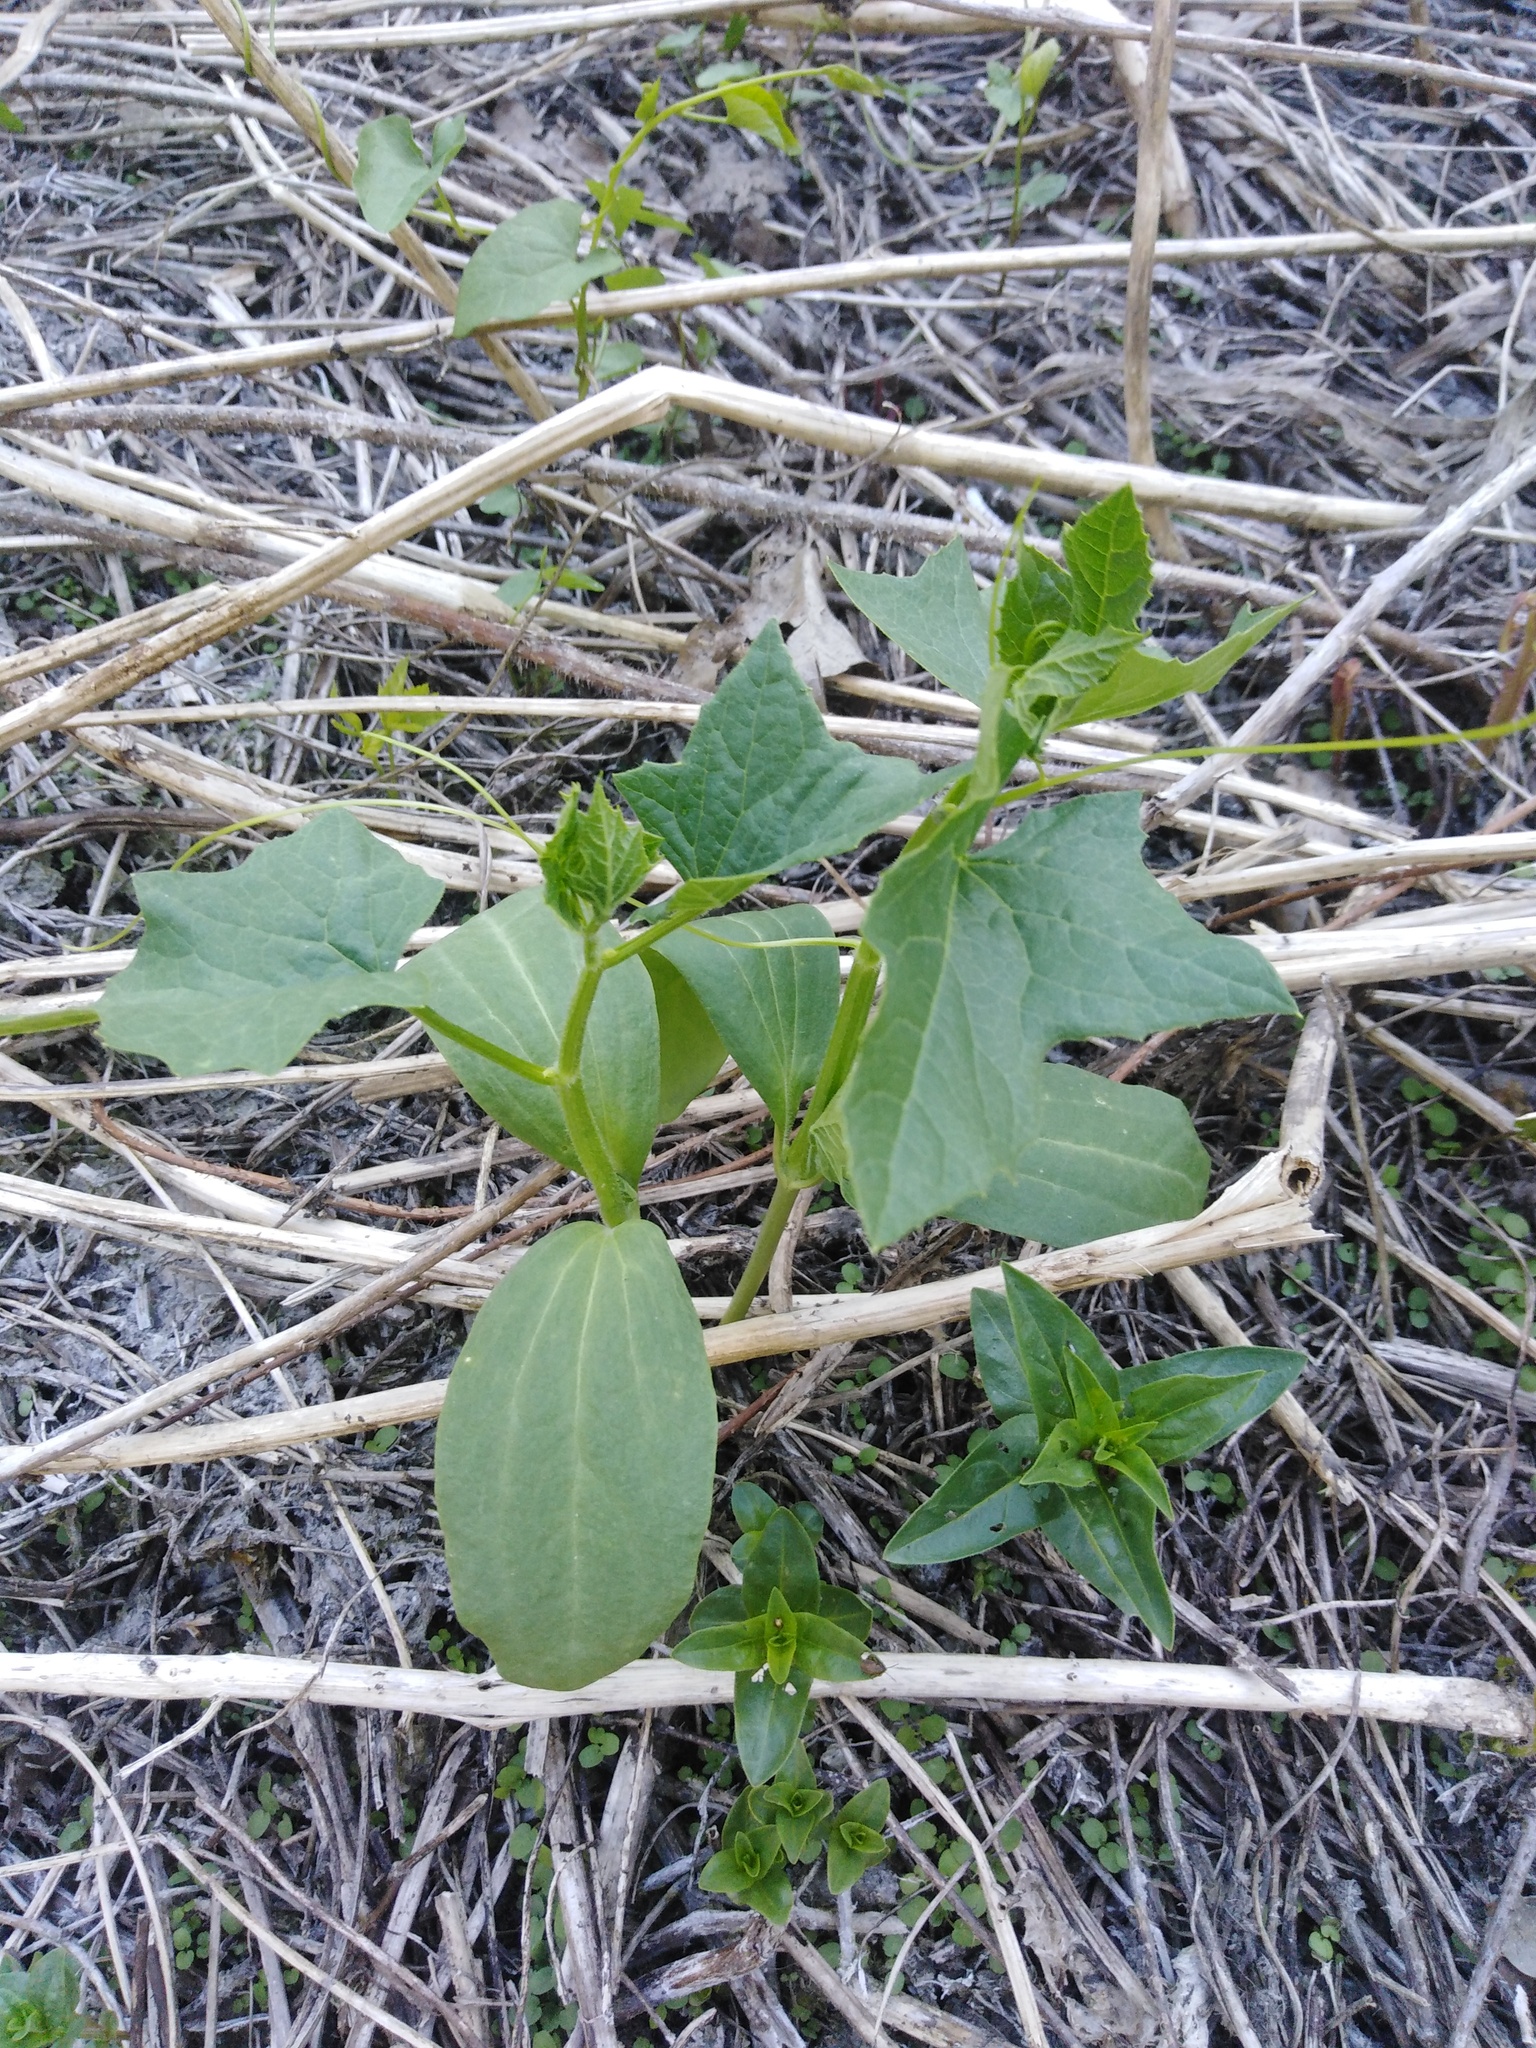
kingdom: Plantae
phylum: Tracheophyta
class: Magnoliopsida
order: Cucurbitales
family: Cucurbitaceae
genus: Echinocystis
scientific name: Echinocystis lobata
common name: Wild cucumber
